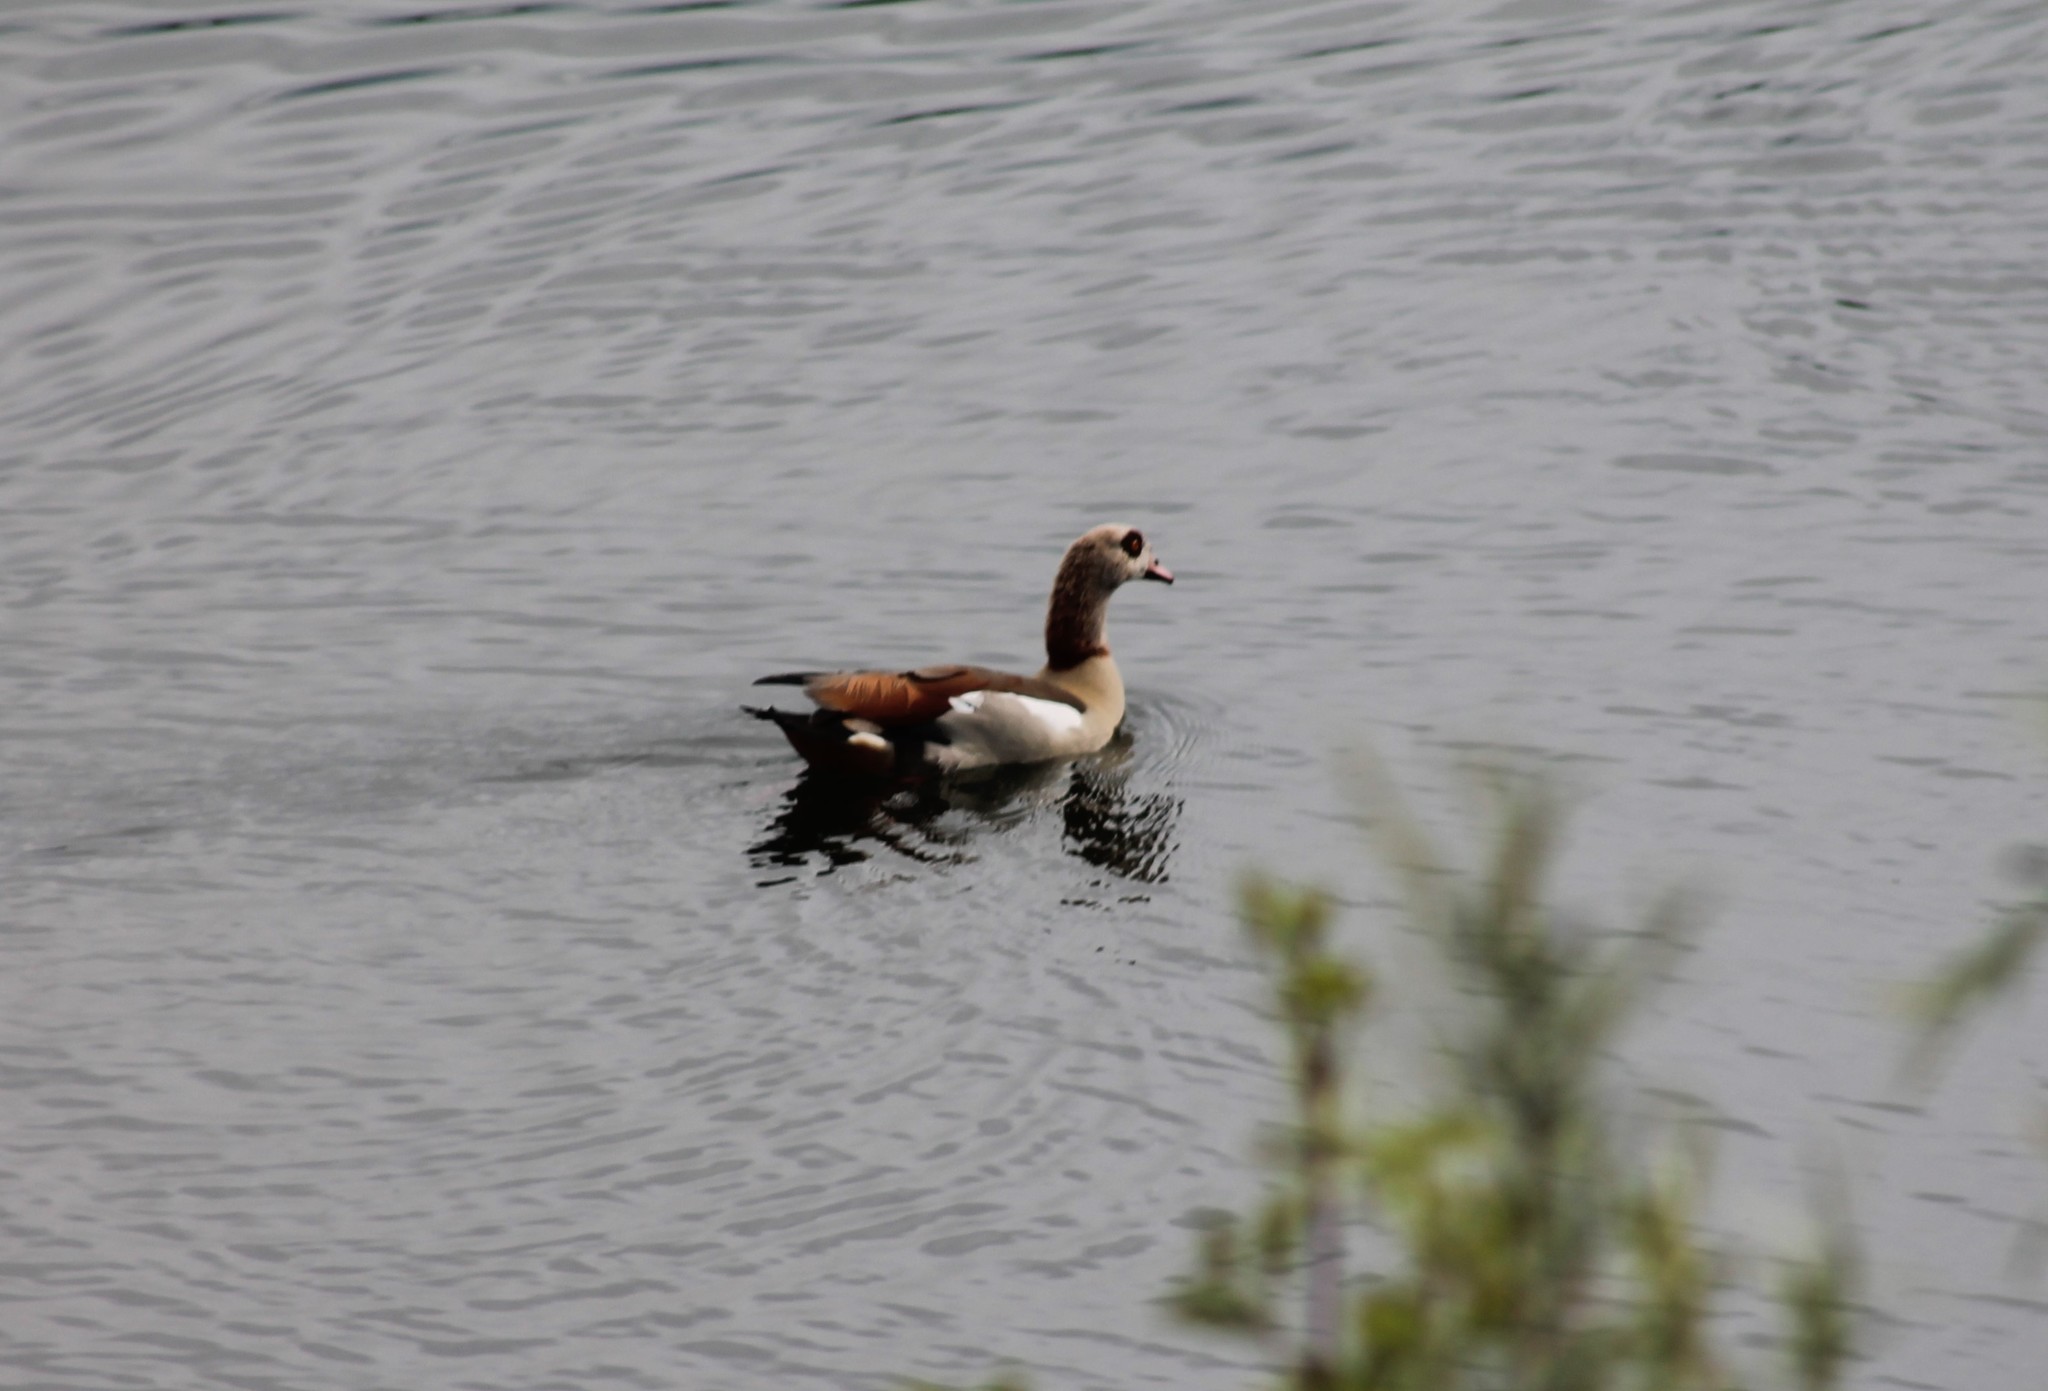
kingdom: Animalia
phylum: Chordata
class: Aves
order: Anseriformes
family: Anatidae
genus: Alopochen
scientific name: Alopochen aegyptiaca
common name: Egyptian goose
